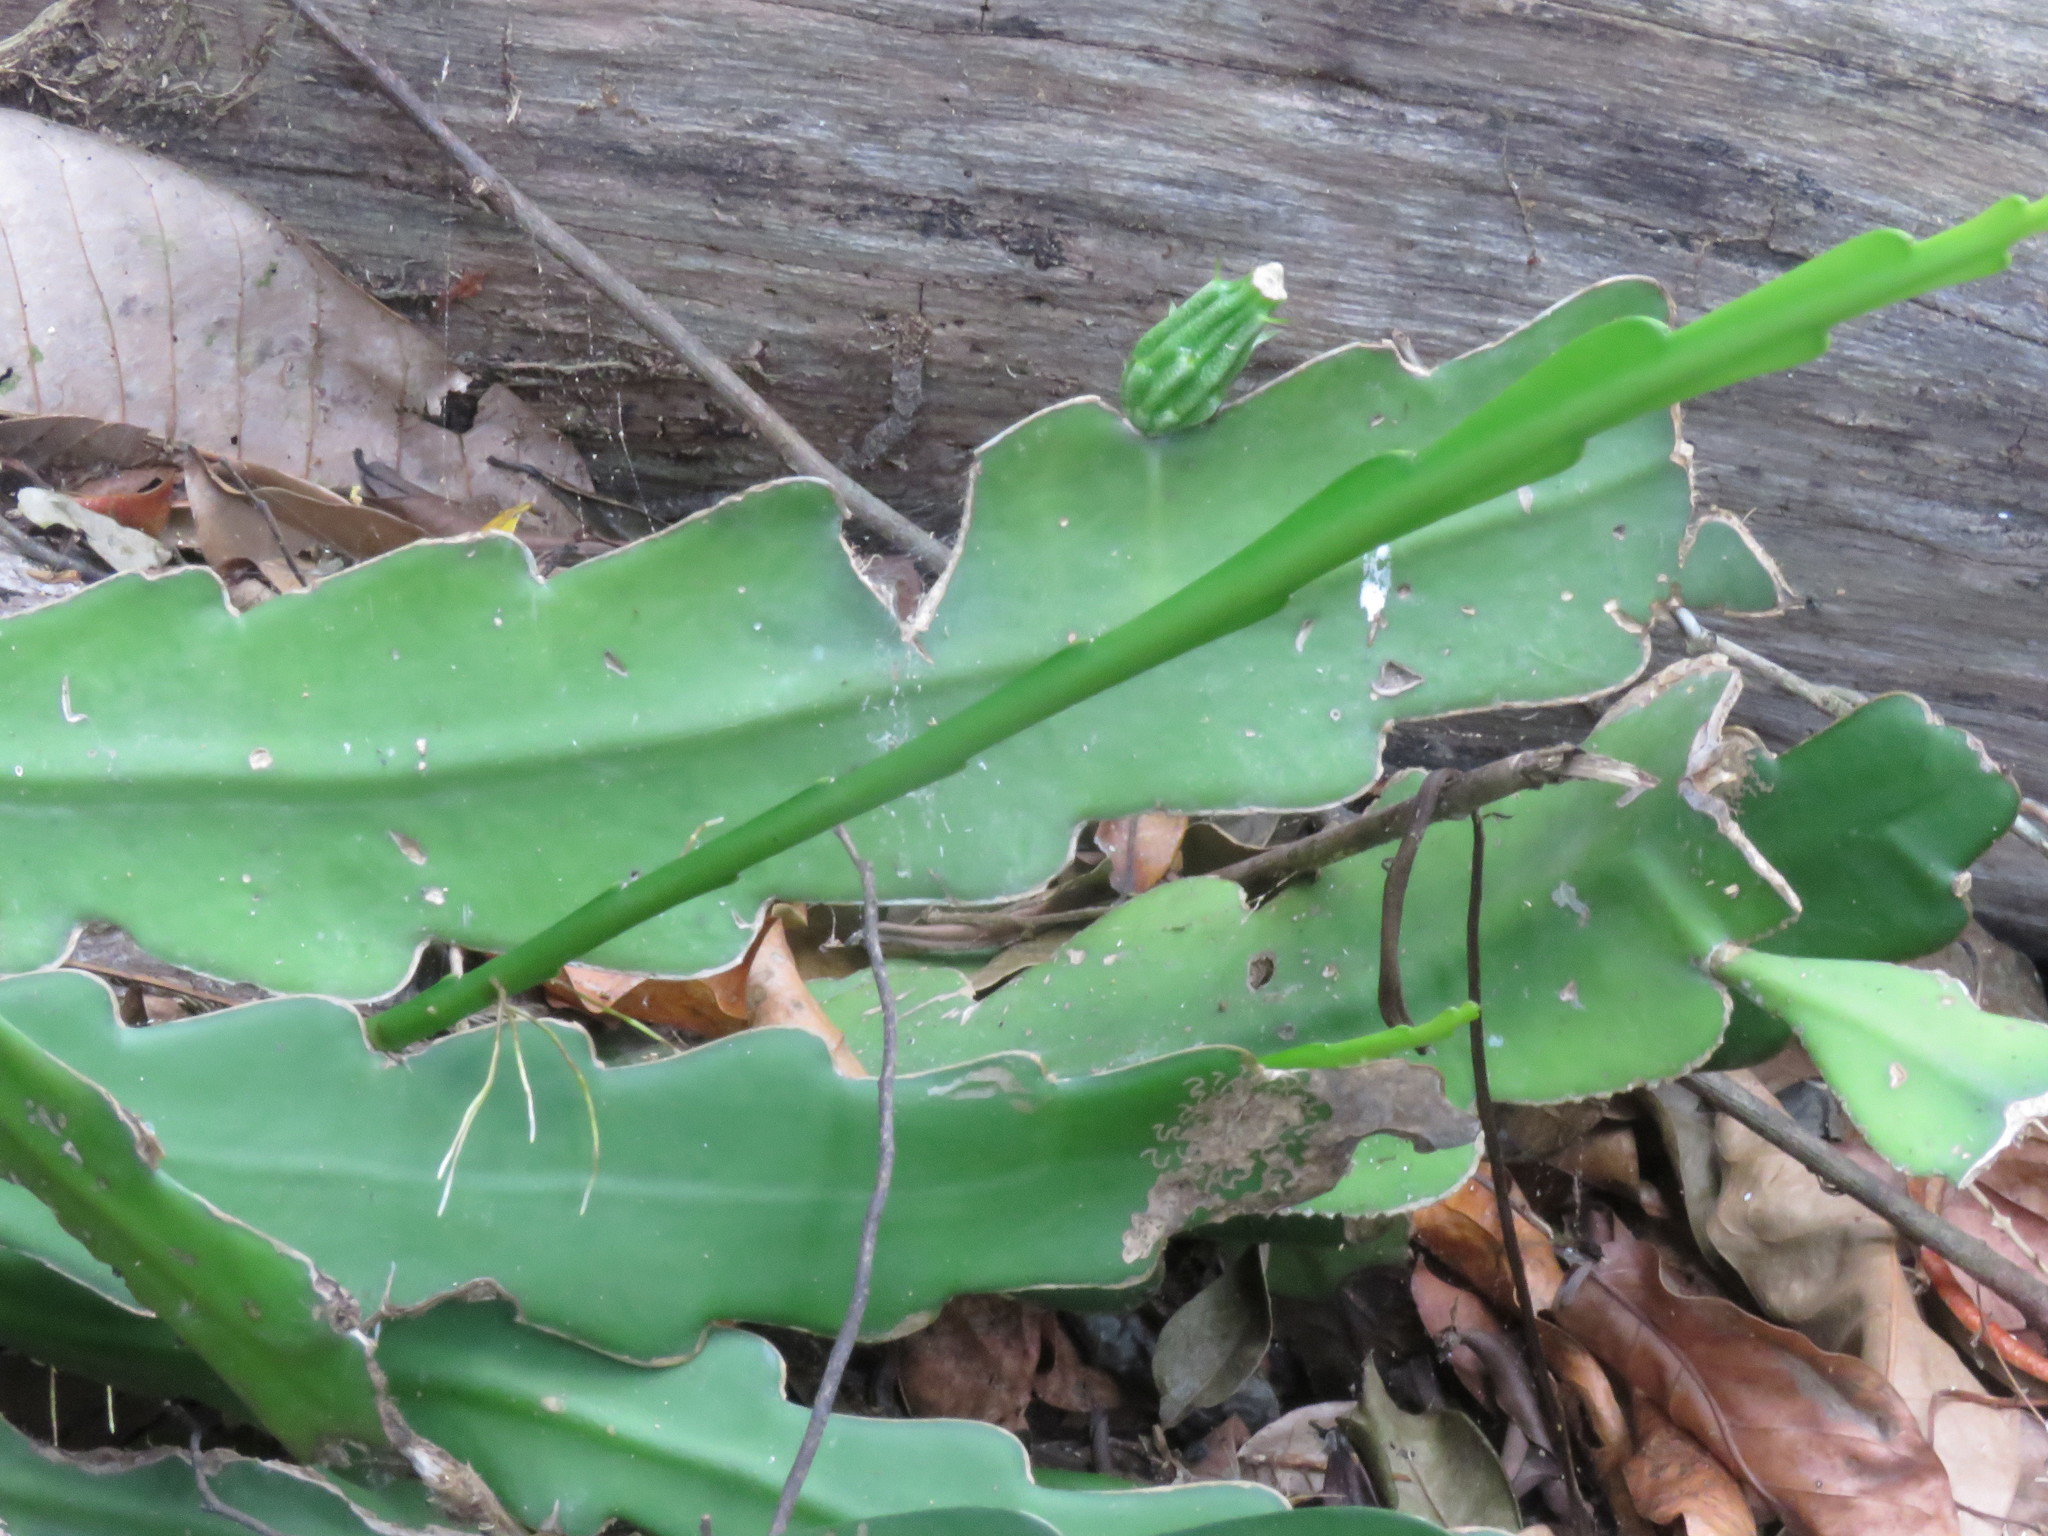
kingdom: Plantae
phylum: Tracheophyta
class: Magnoliopsida
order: Caryophyllales
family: Cactaceae
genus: Epiphyllum
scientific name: Epiphyllum phyllanthus
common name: Climbing cactus
